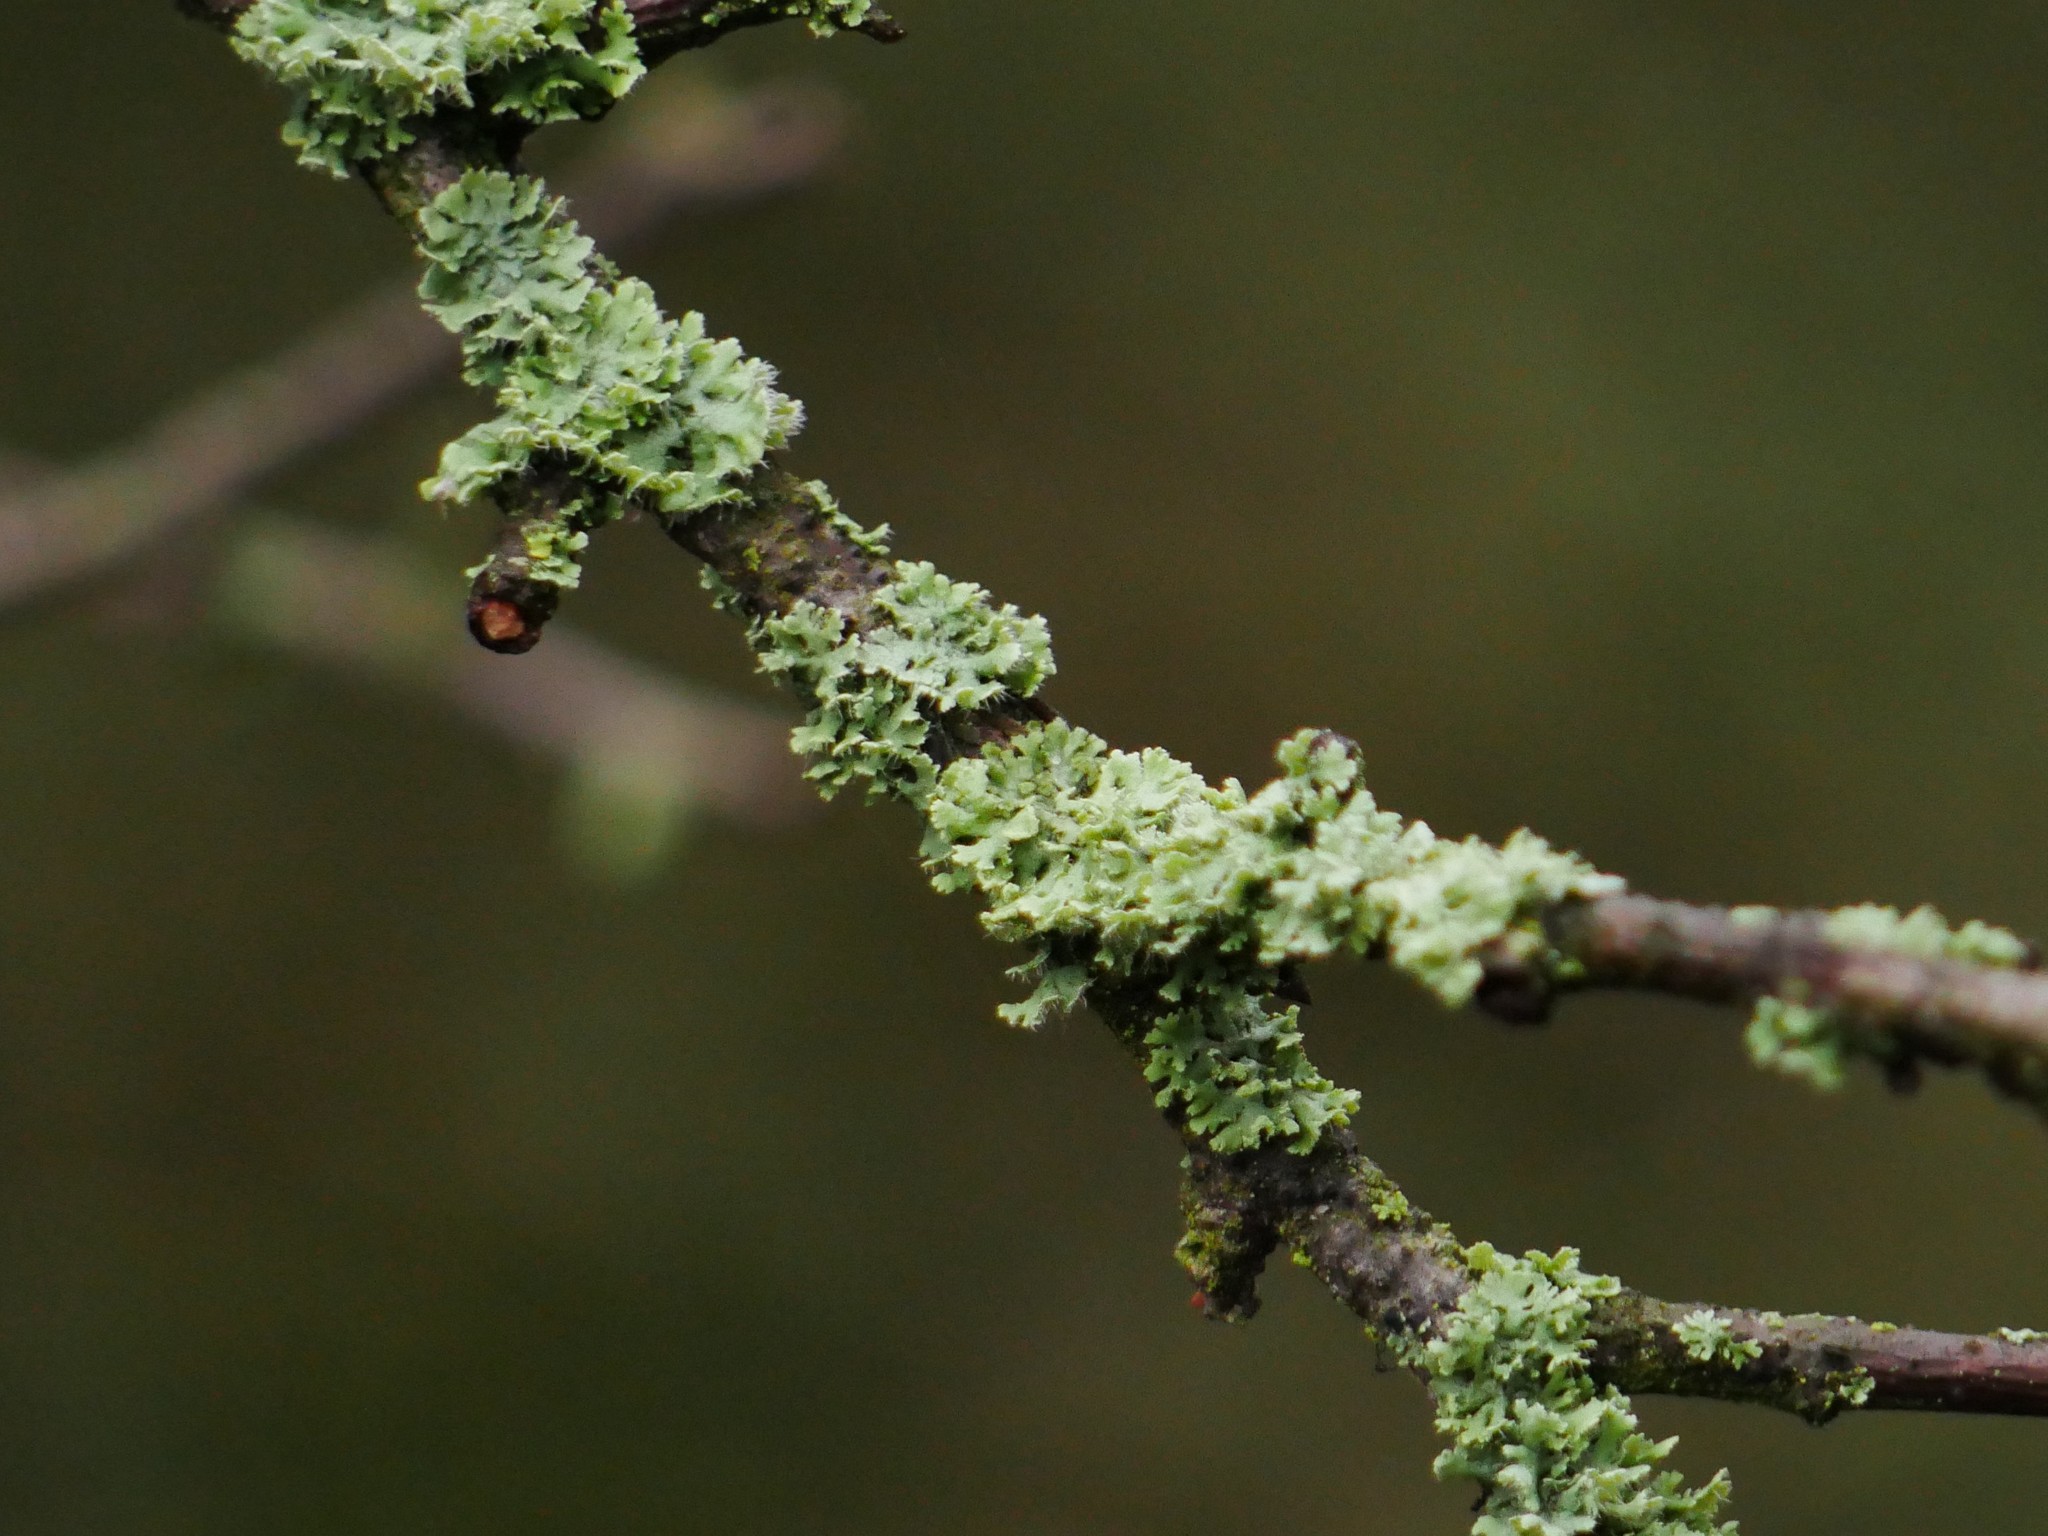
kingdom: Fungi
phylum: Ascomycota
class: Lecanoromycetes
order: Caliciales
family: Physciaceae
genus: Physcia
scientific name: Physcia tenella
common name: Fringed rosette lichen
